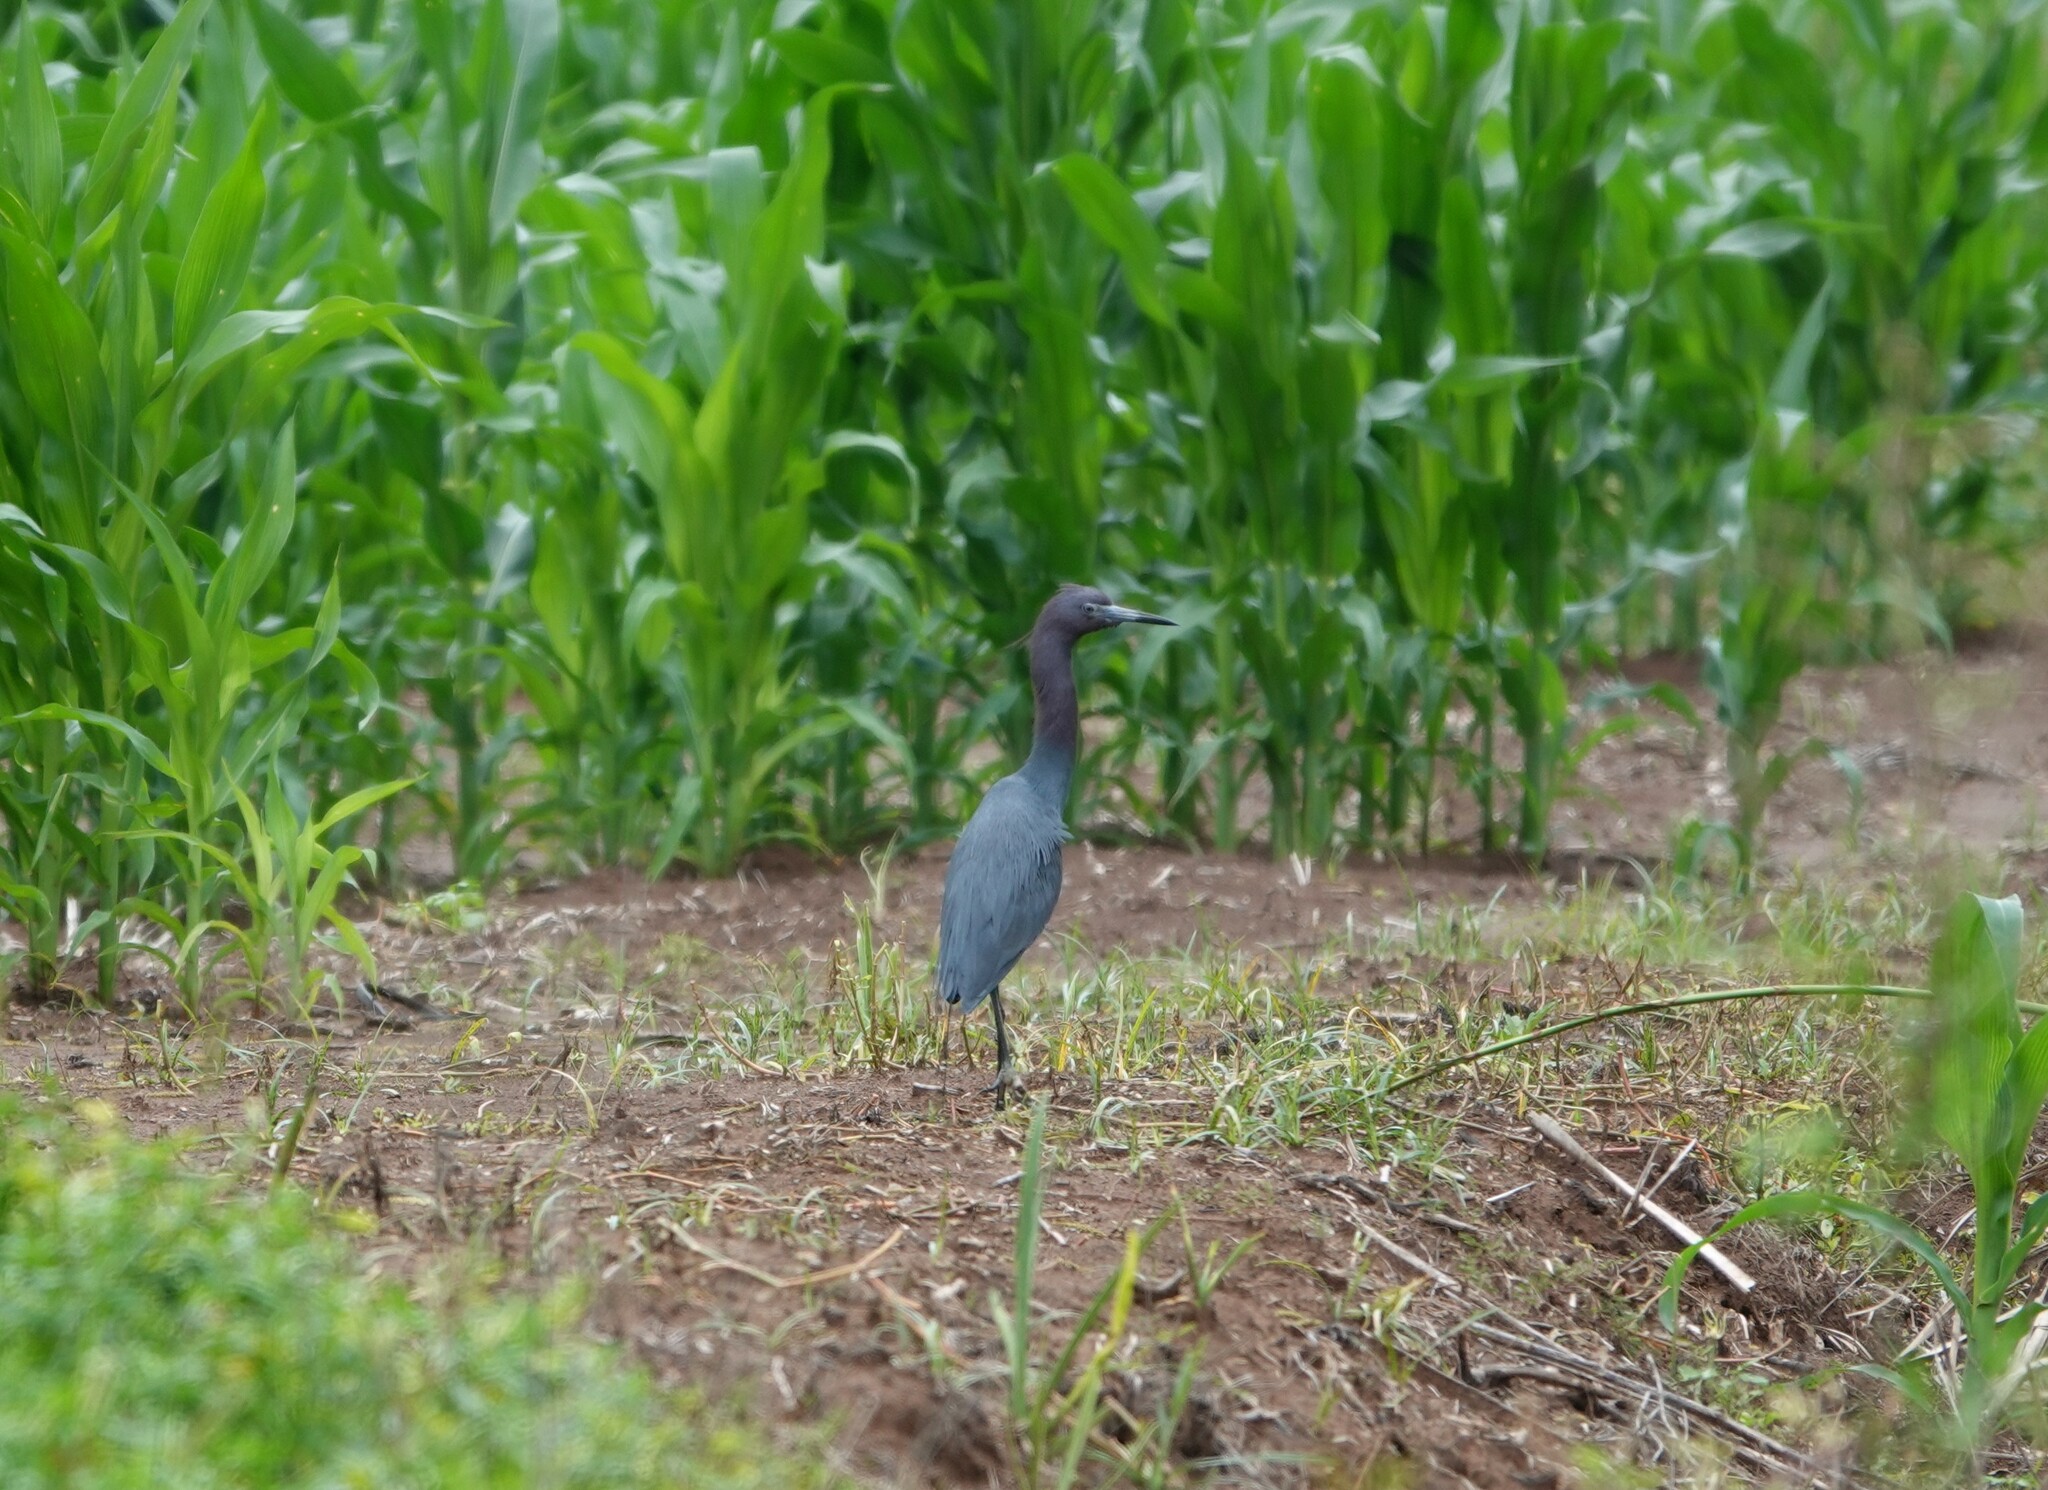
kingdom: Animalia
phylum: Chordata
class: Aves
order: Pelecaniformes
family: Ardeidae
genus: Egretta
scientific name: Egretta caerulea
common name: Little blue heron
